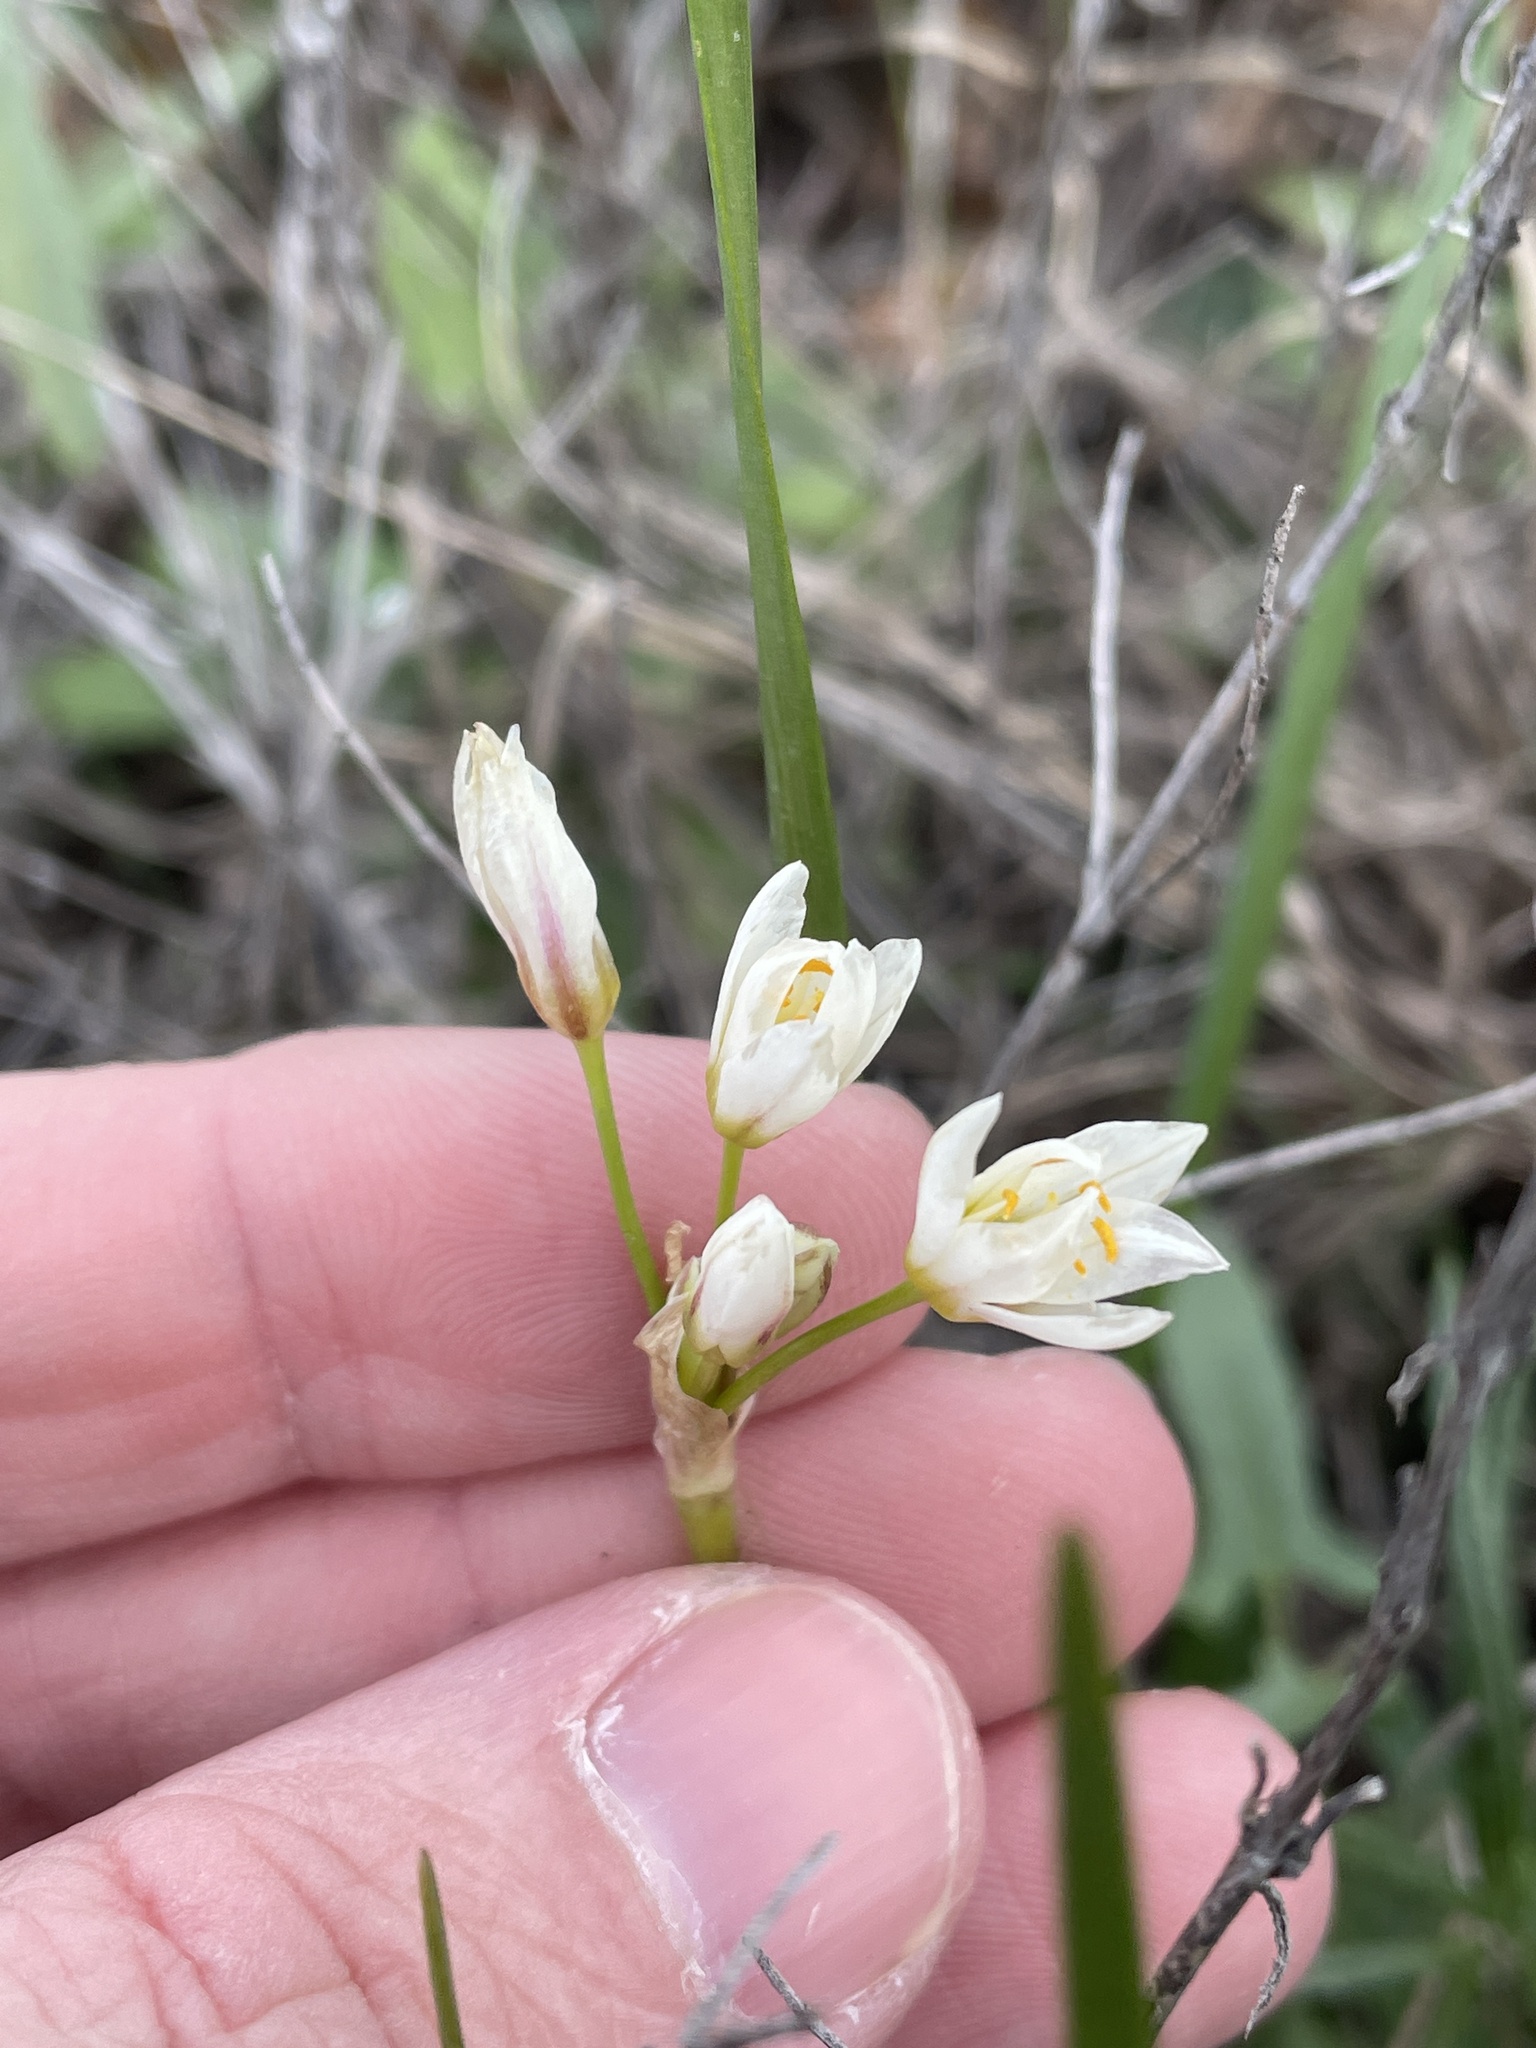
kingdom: Plantae
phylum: Tracheophyta
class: Liliopsida
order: Asparagales
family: Amaryllidaceae
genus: Nothoscordum
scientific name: Nothoscordum bivalve
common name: Crow-poison
